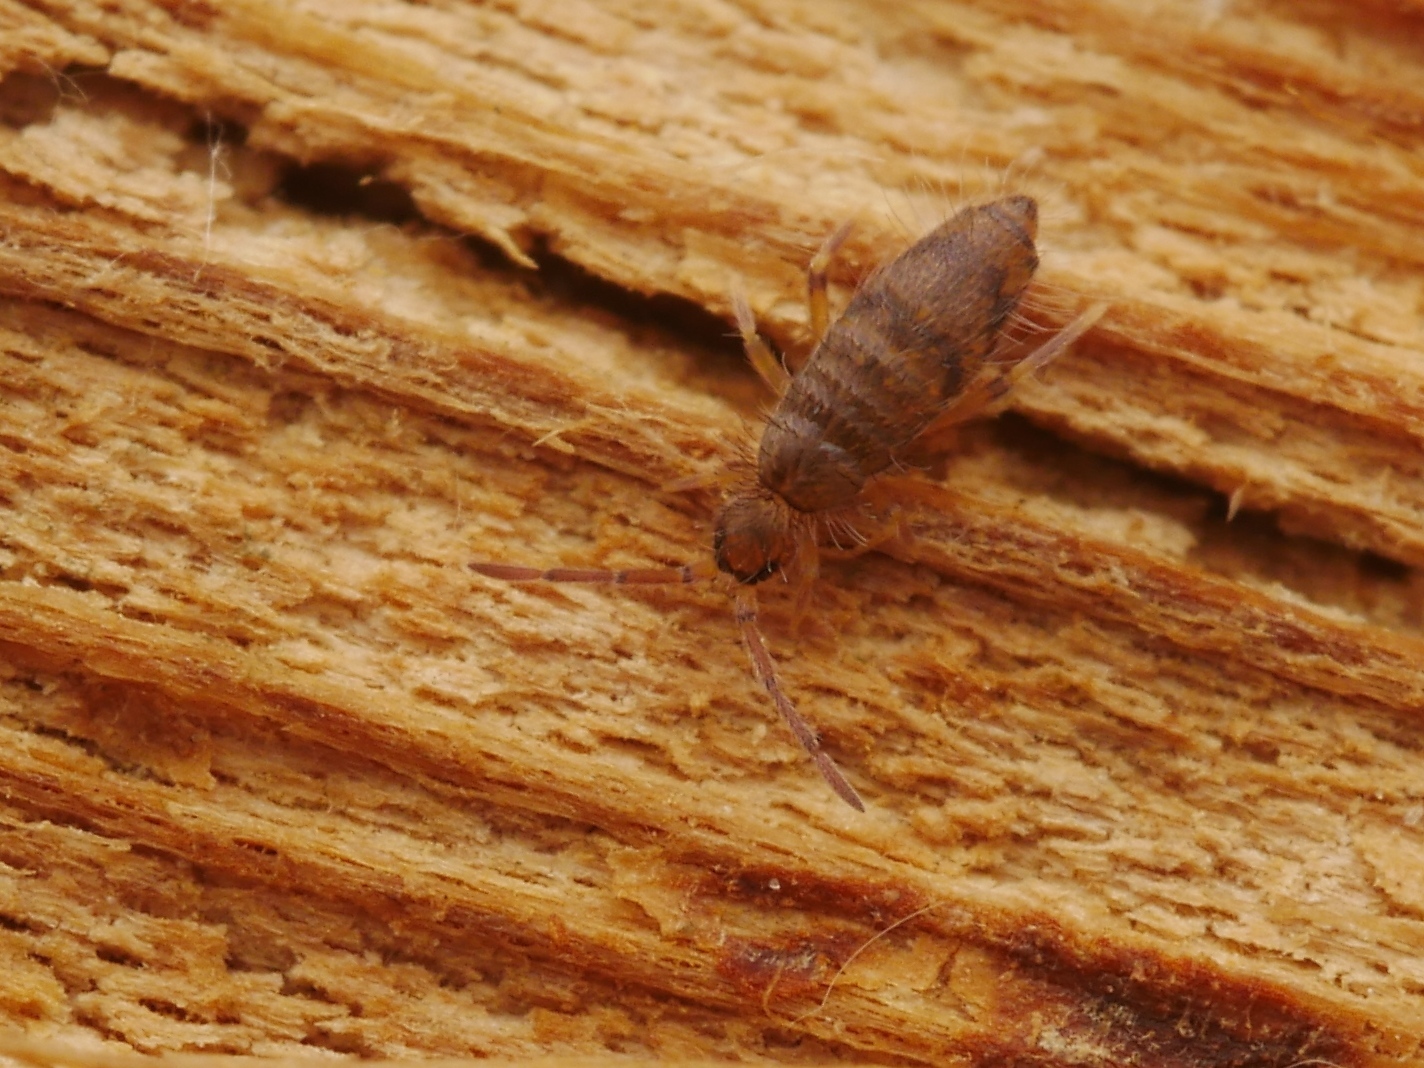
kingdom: Animalia
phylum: Arthropoda
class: Collembola
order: Entomobryomorpha
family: Entomobryidae
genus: Willowsia
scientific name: Willowsia nigromaculata
